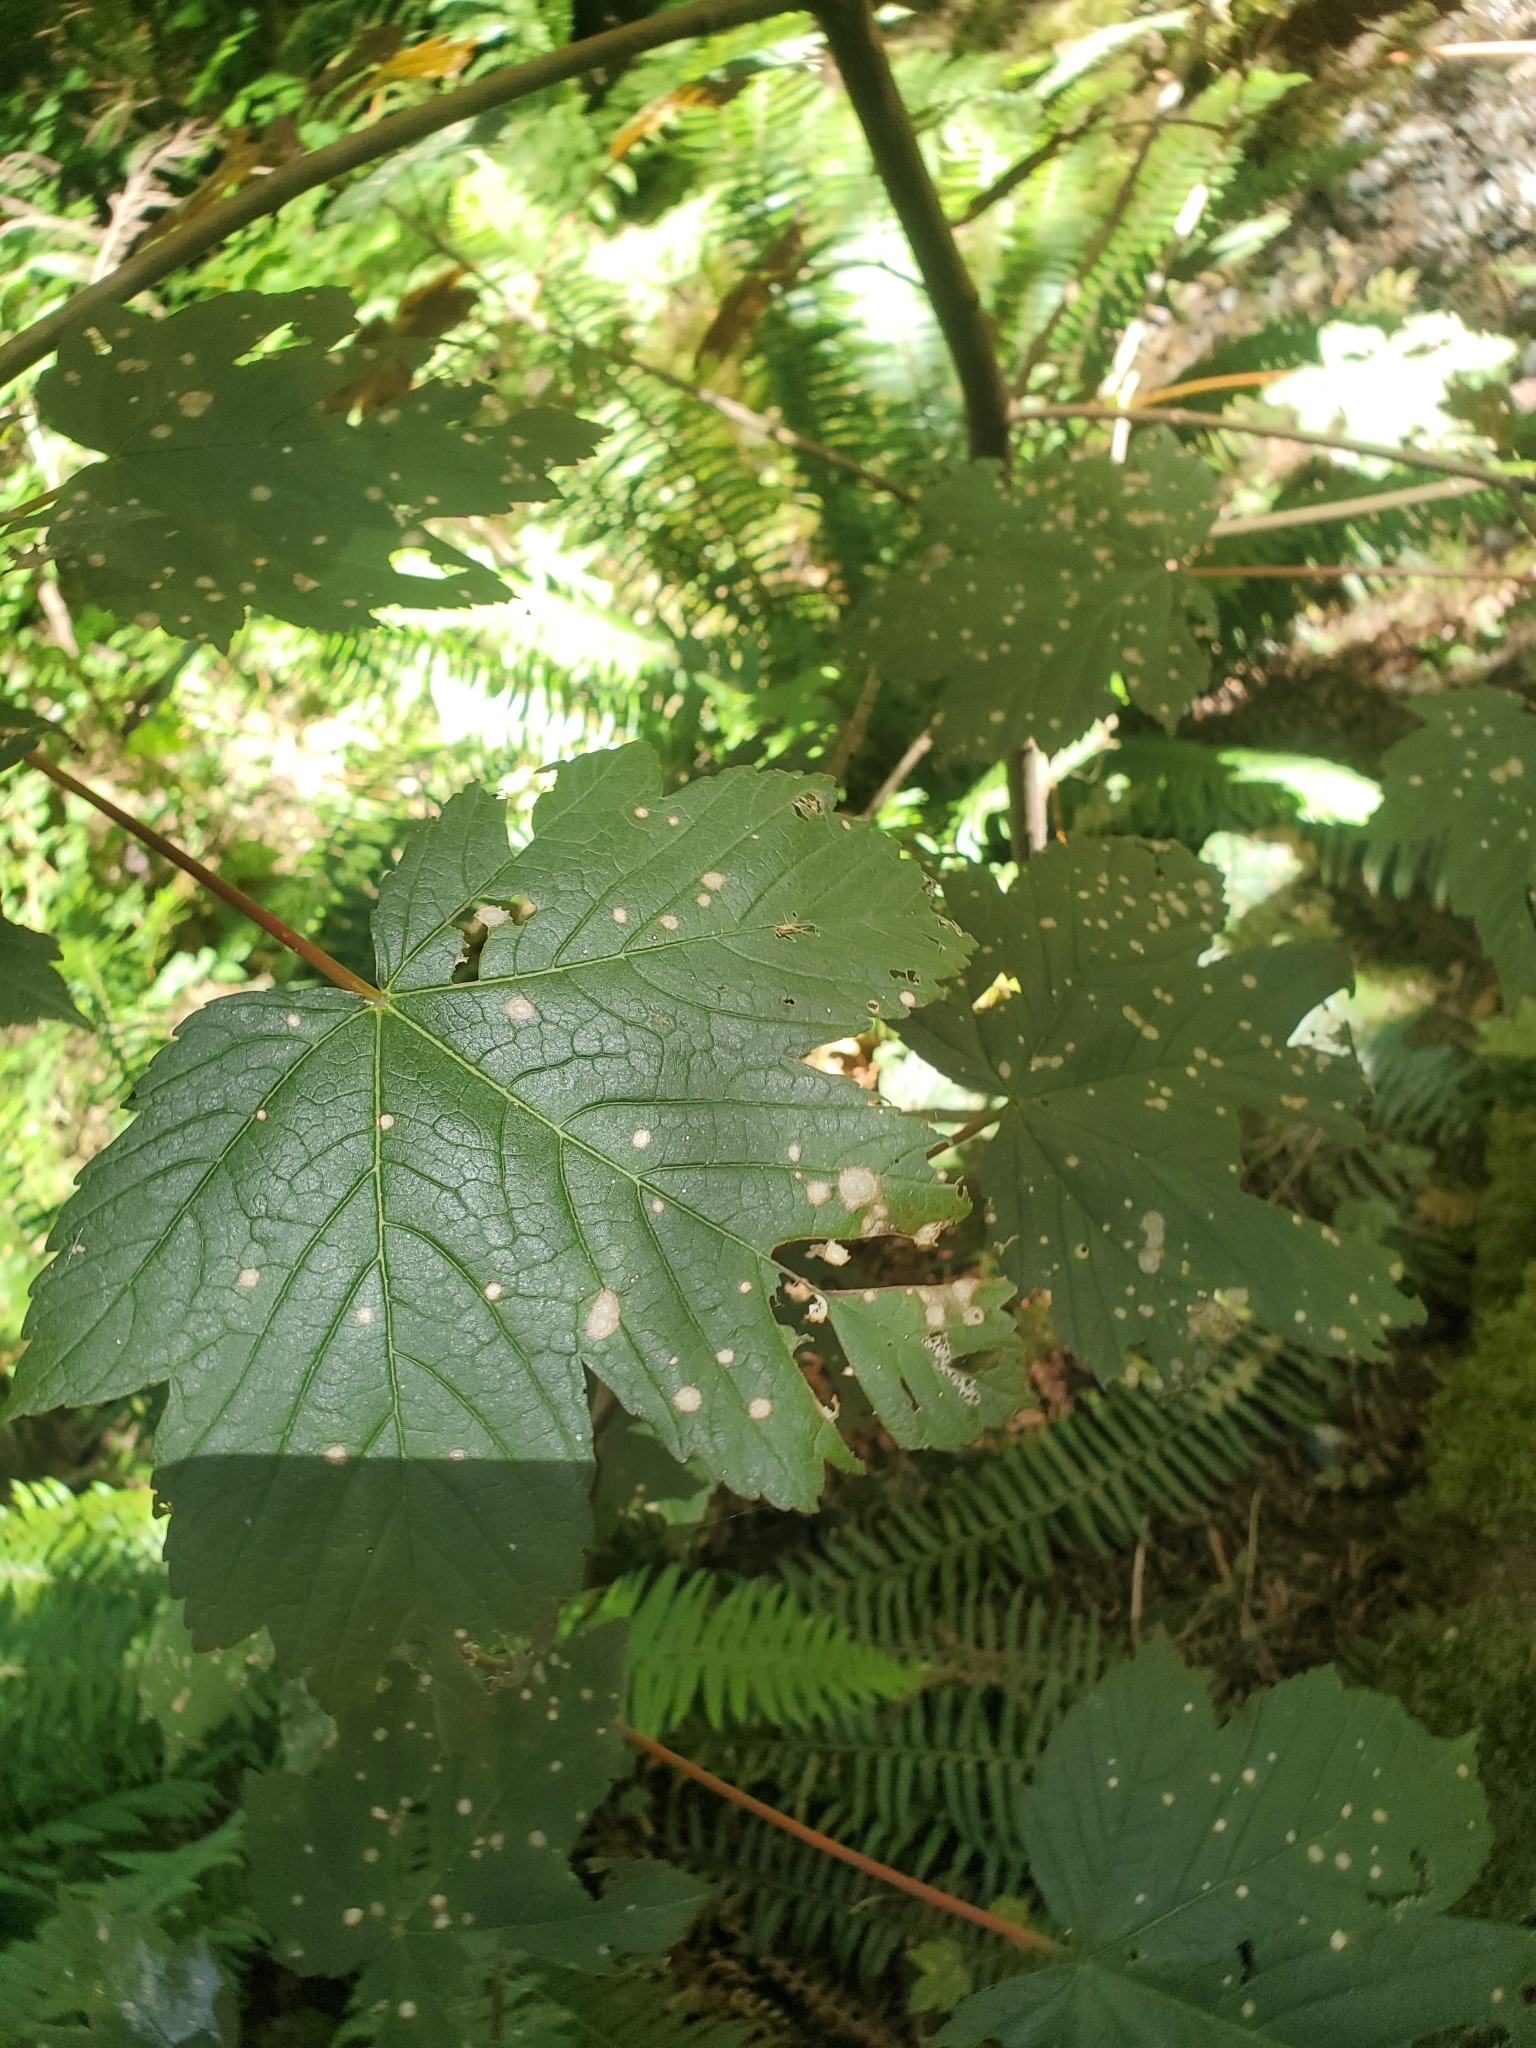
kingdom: Plantae
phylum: Tracheophyta
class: Magnoliopsida
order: Sapindales
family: Sapindaceae
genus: Acer
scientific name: Acer pseudoplatanus
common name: Sycamore
